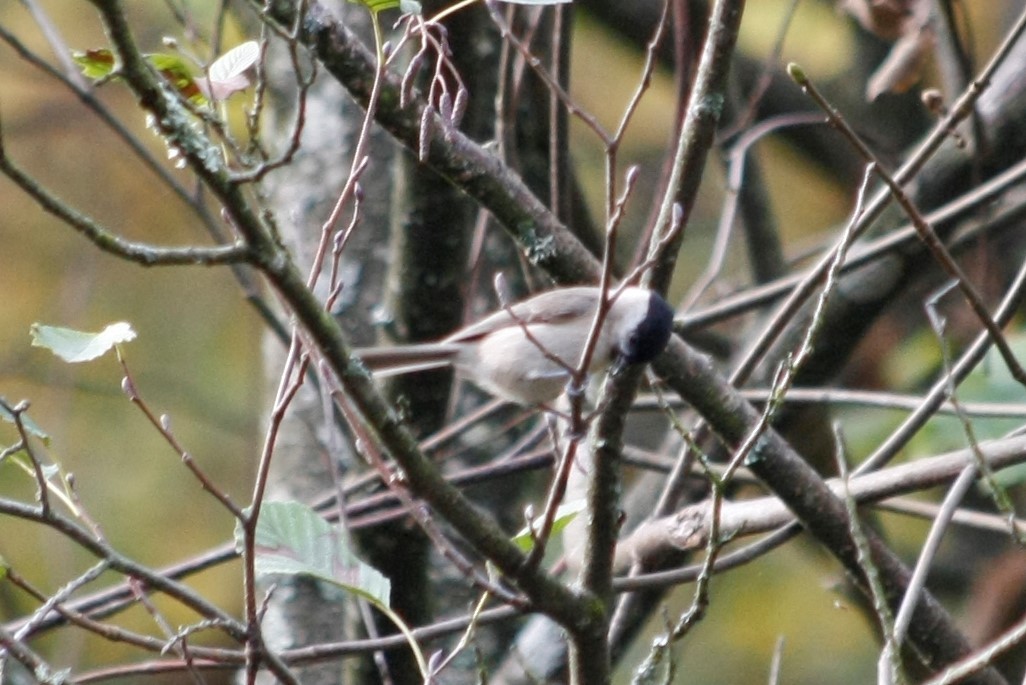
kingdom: Animalia
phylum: Chordata
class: Aves
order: Passeriformes
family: Paridae
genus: Poecile
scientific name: Poecile palustris
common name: Marsh tit
